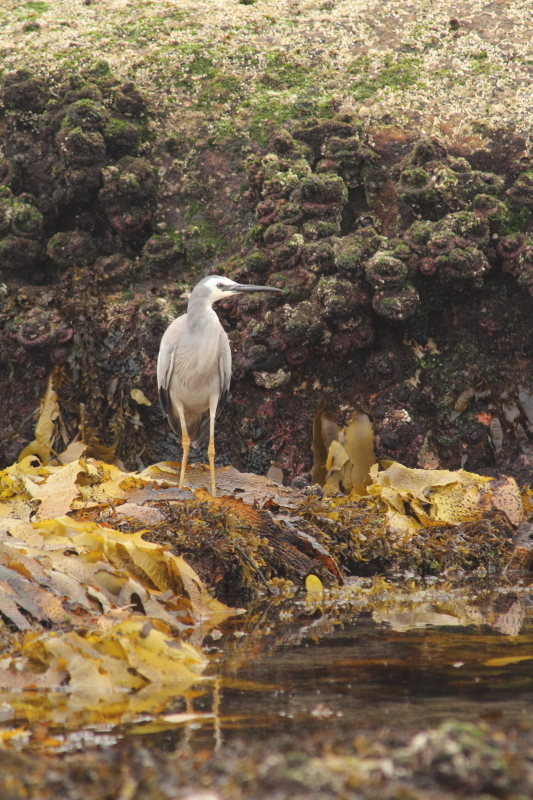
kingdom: Animalia
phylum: Chordata
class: Aves
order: Pelecaniformes
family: Ardeidae
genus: Egretta
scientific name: Egretta novaehollandiae
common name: White-faced heron
